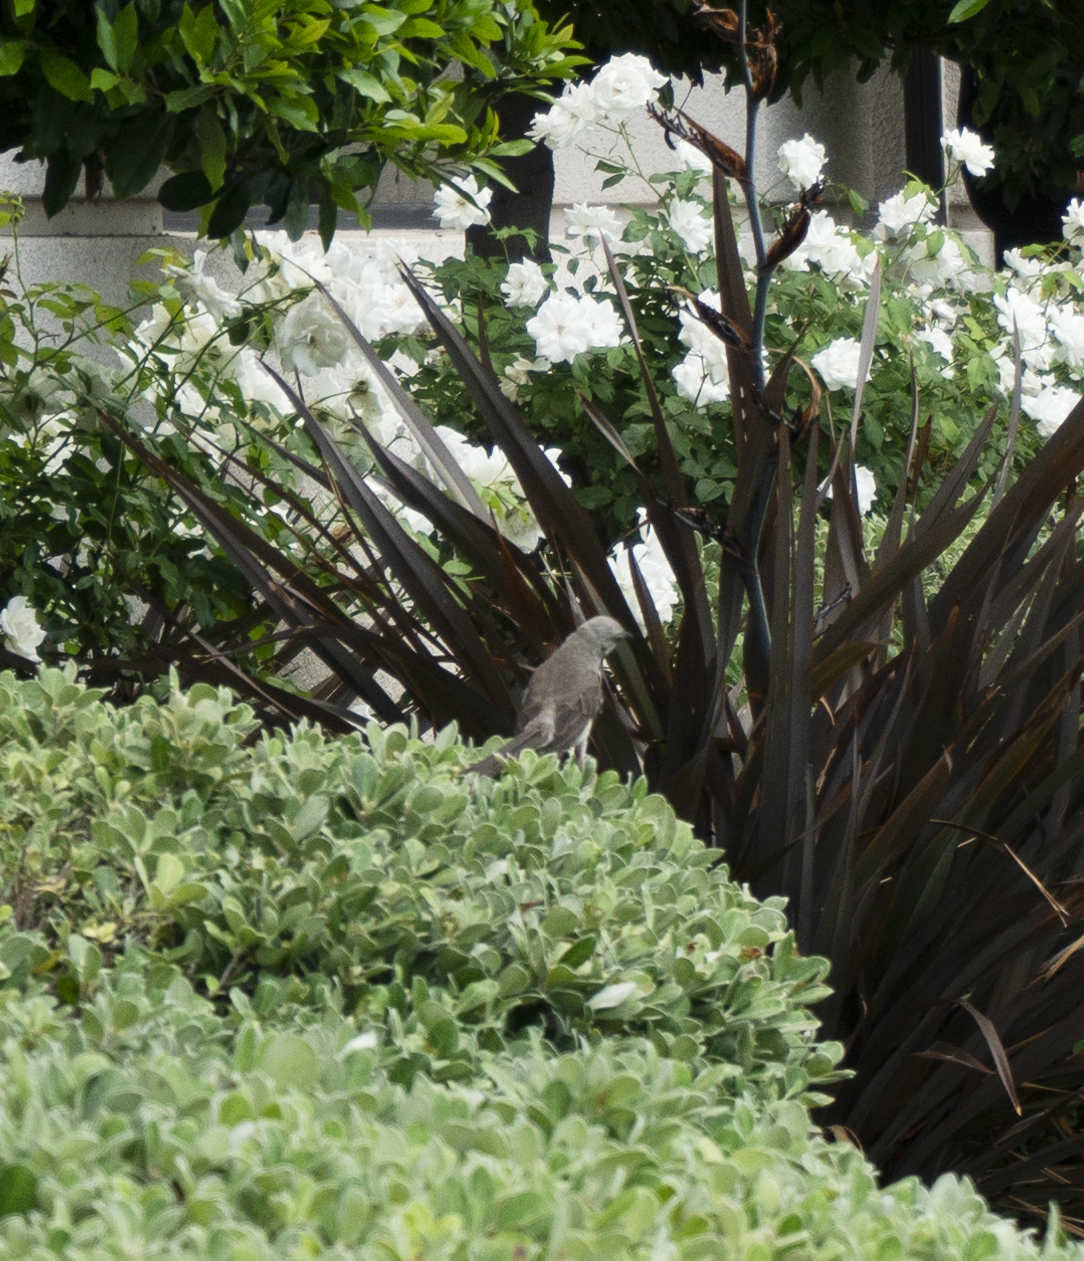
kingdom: Animalia
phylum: Chordata
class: Aves
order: Passeriformes
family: Mimidae
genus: Mimus
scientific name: Mimus polyglottos
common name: Northern mockingbird
